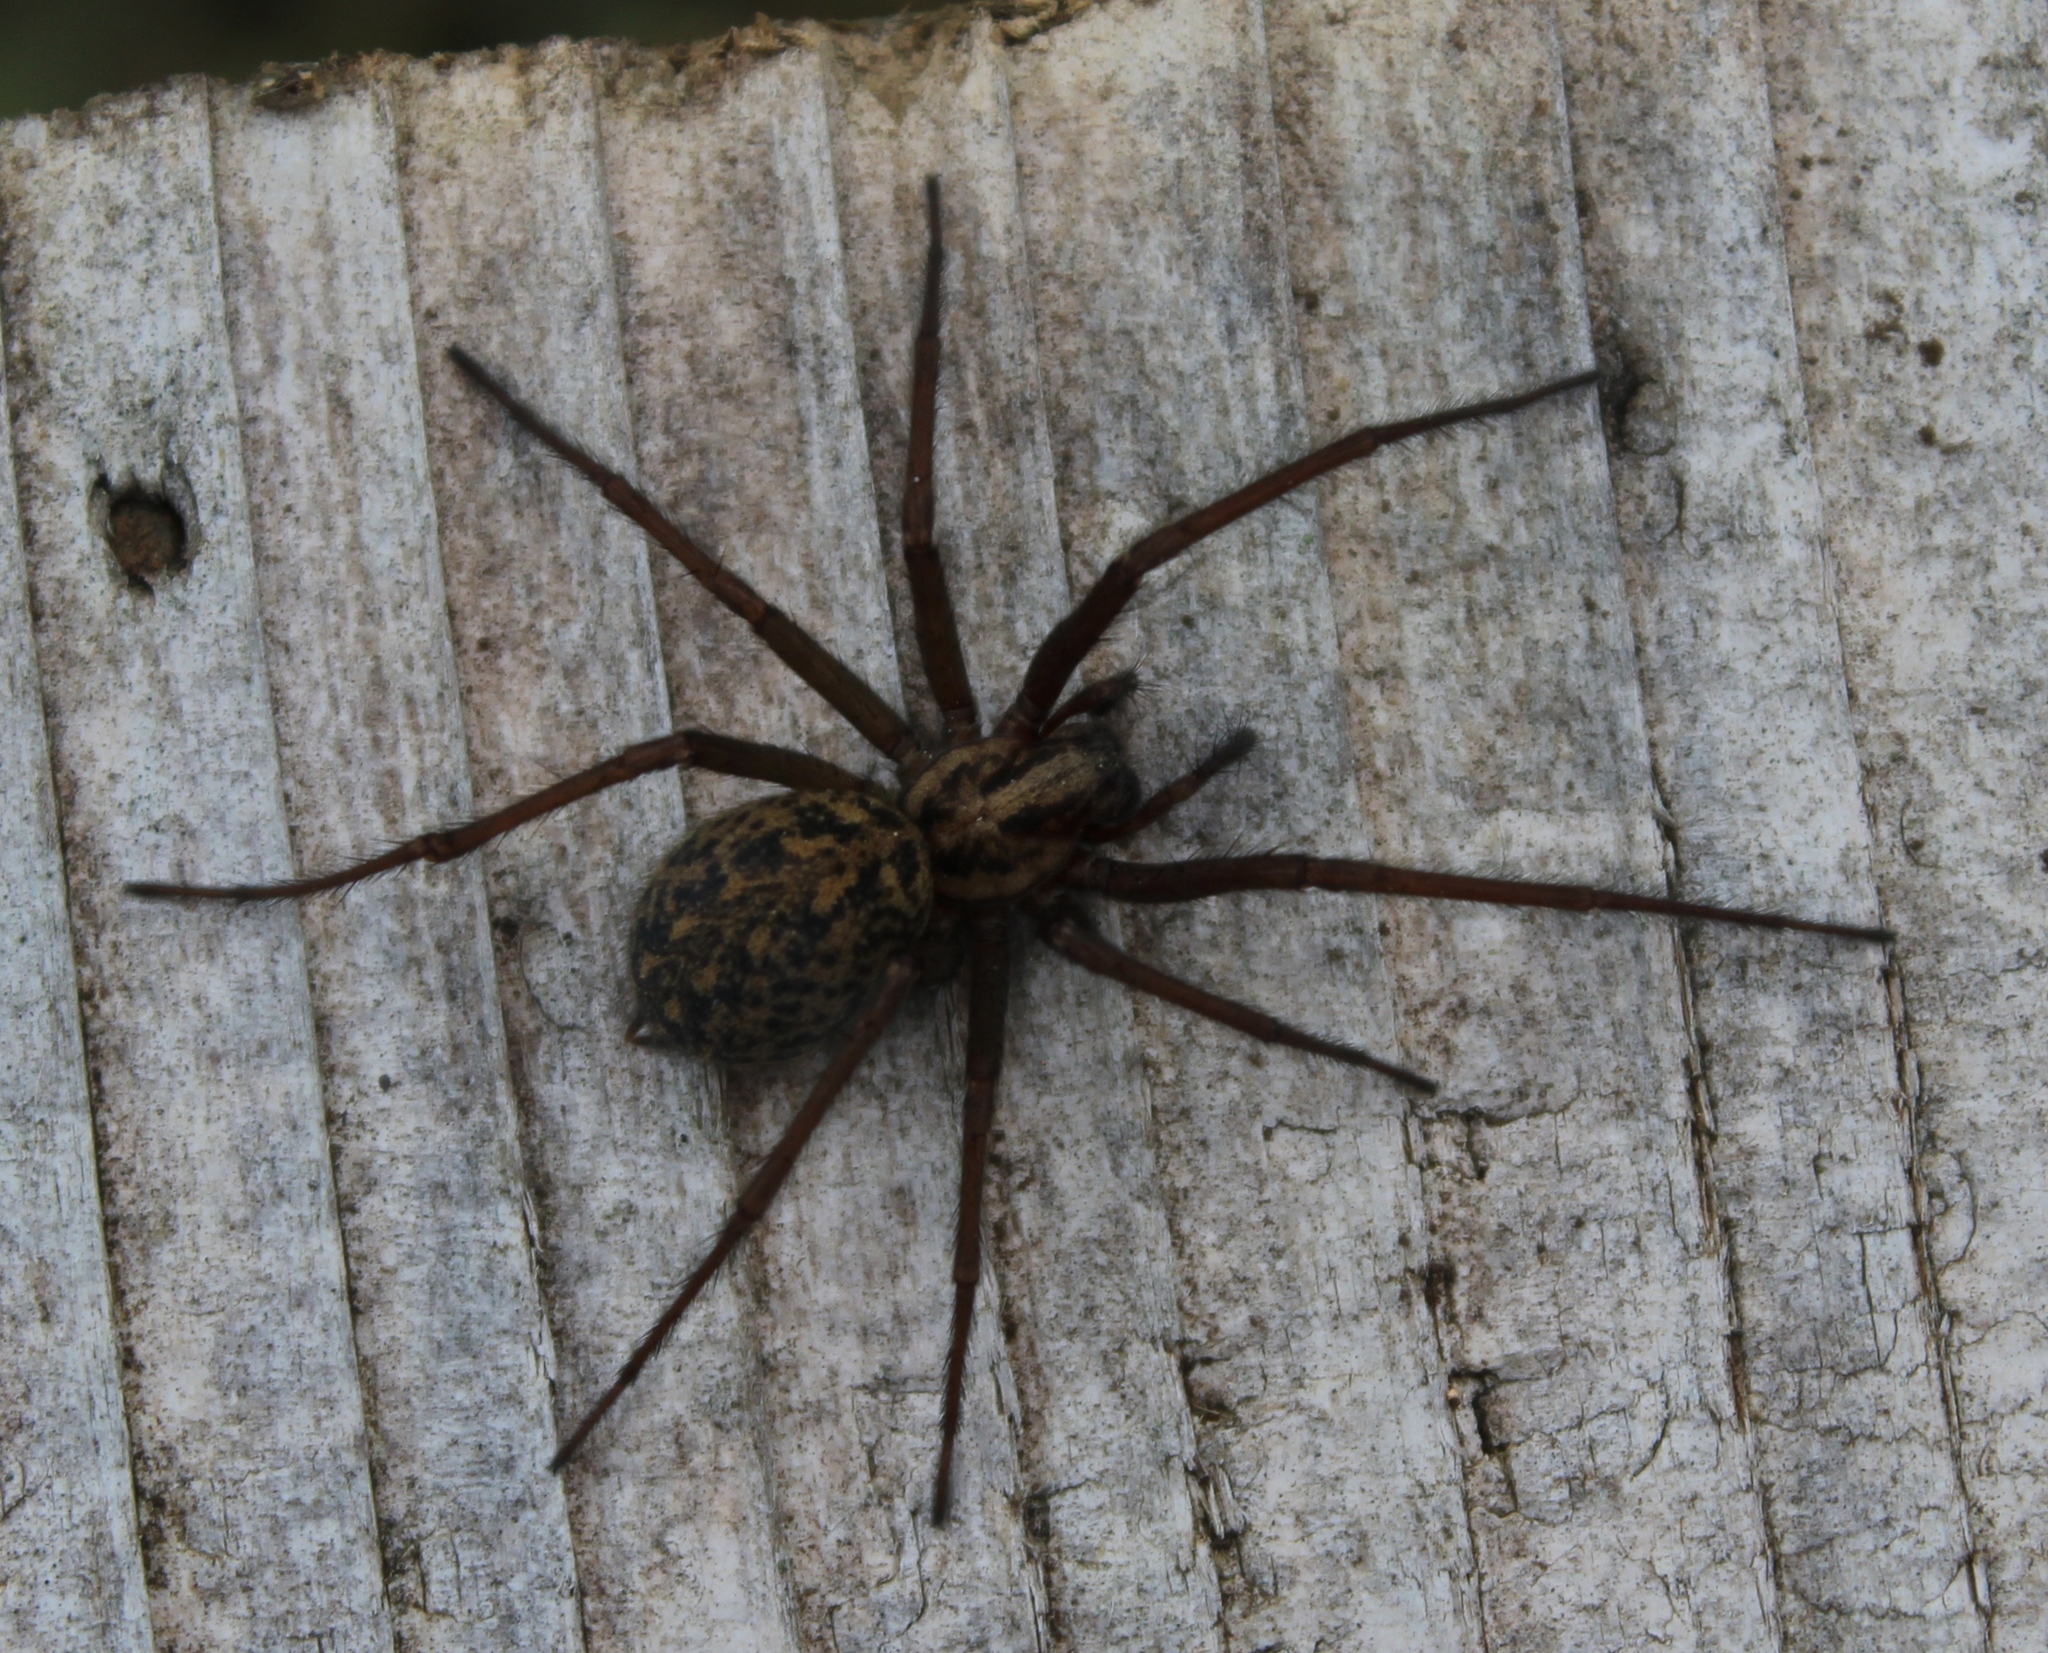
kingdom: Animalia
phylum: Arthropoda
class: Arachnida
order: Araneae
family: Agelenidae
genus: Eratigena
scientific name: Eratigena duellica
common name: Giant house spider
